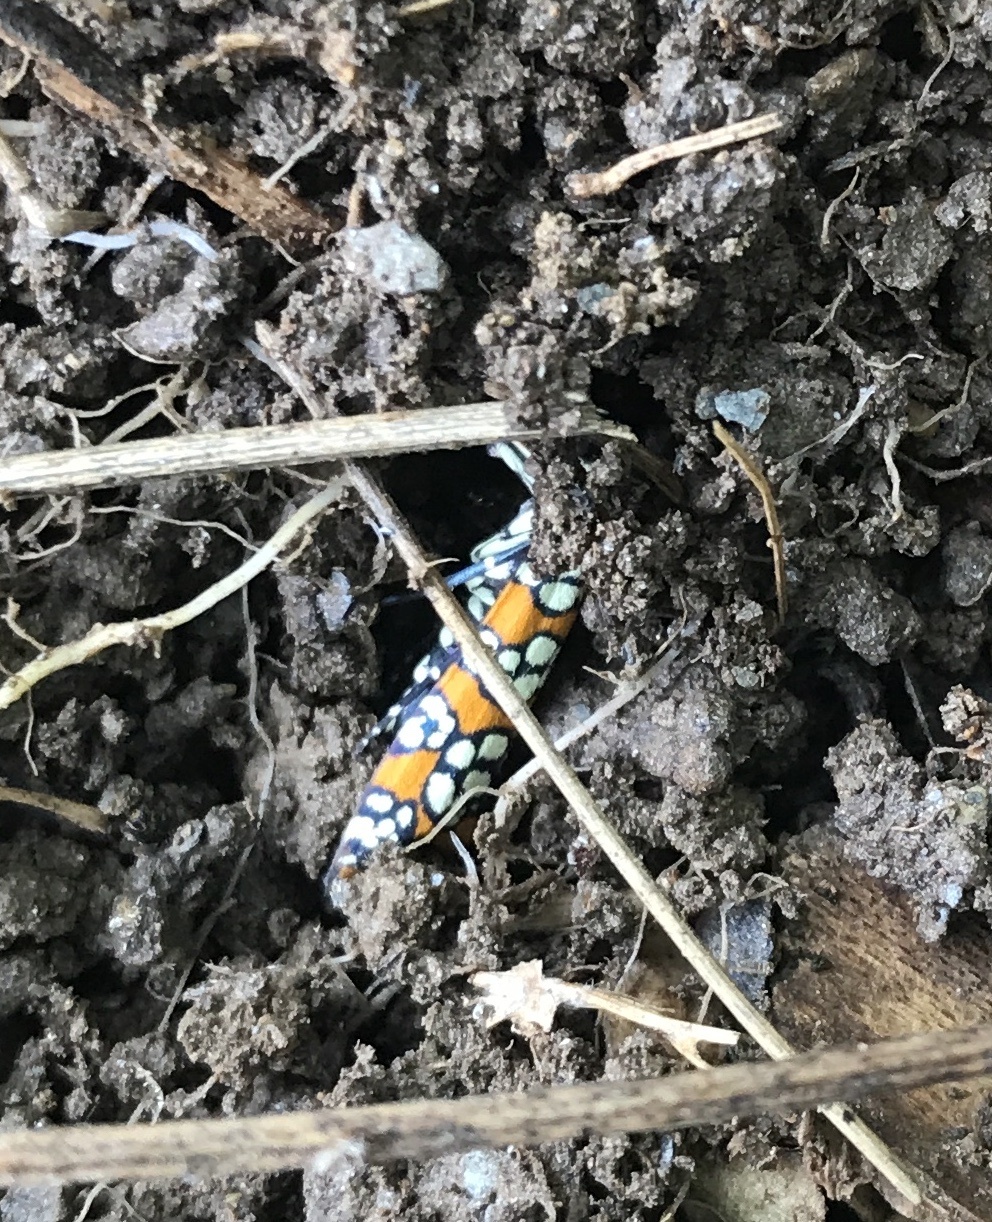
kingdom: Animalia
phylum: Arthropoda
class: Insecta
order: Lepidoptera
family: Attevidae
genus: Atteva
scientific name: Atteva punctella
